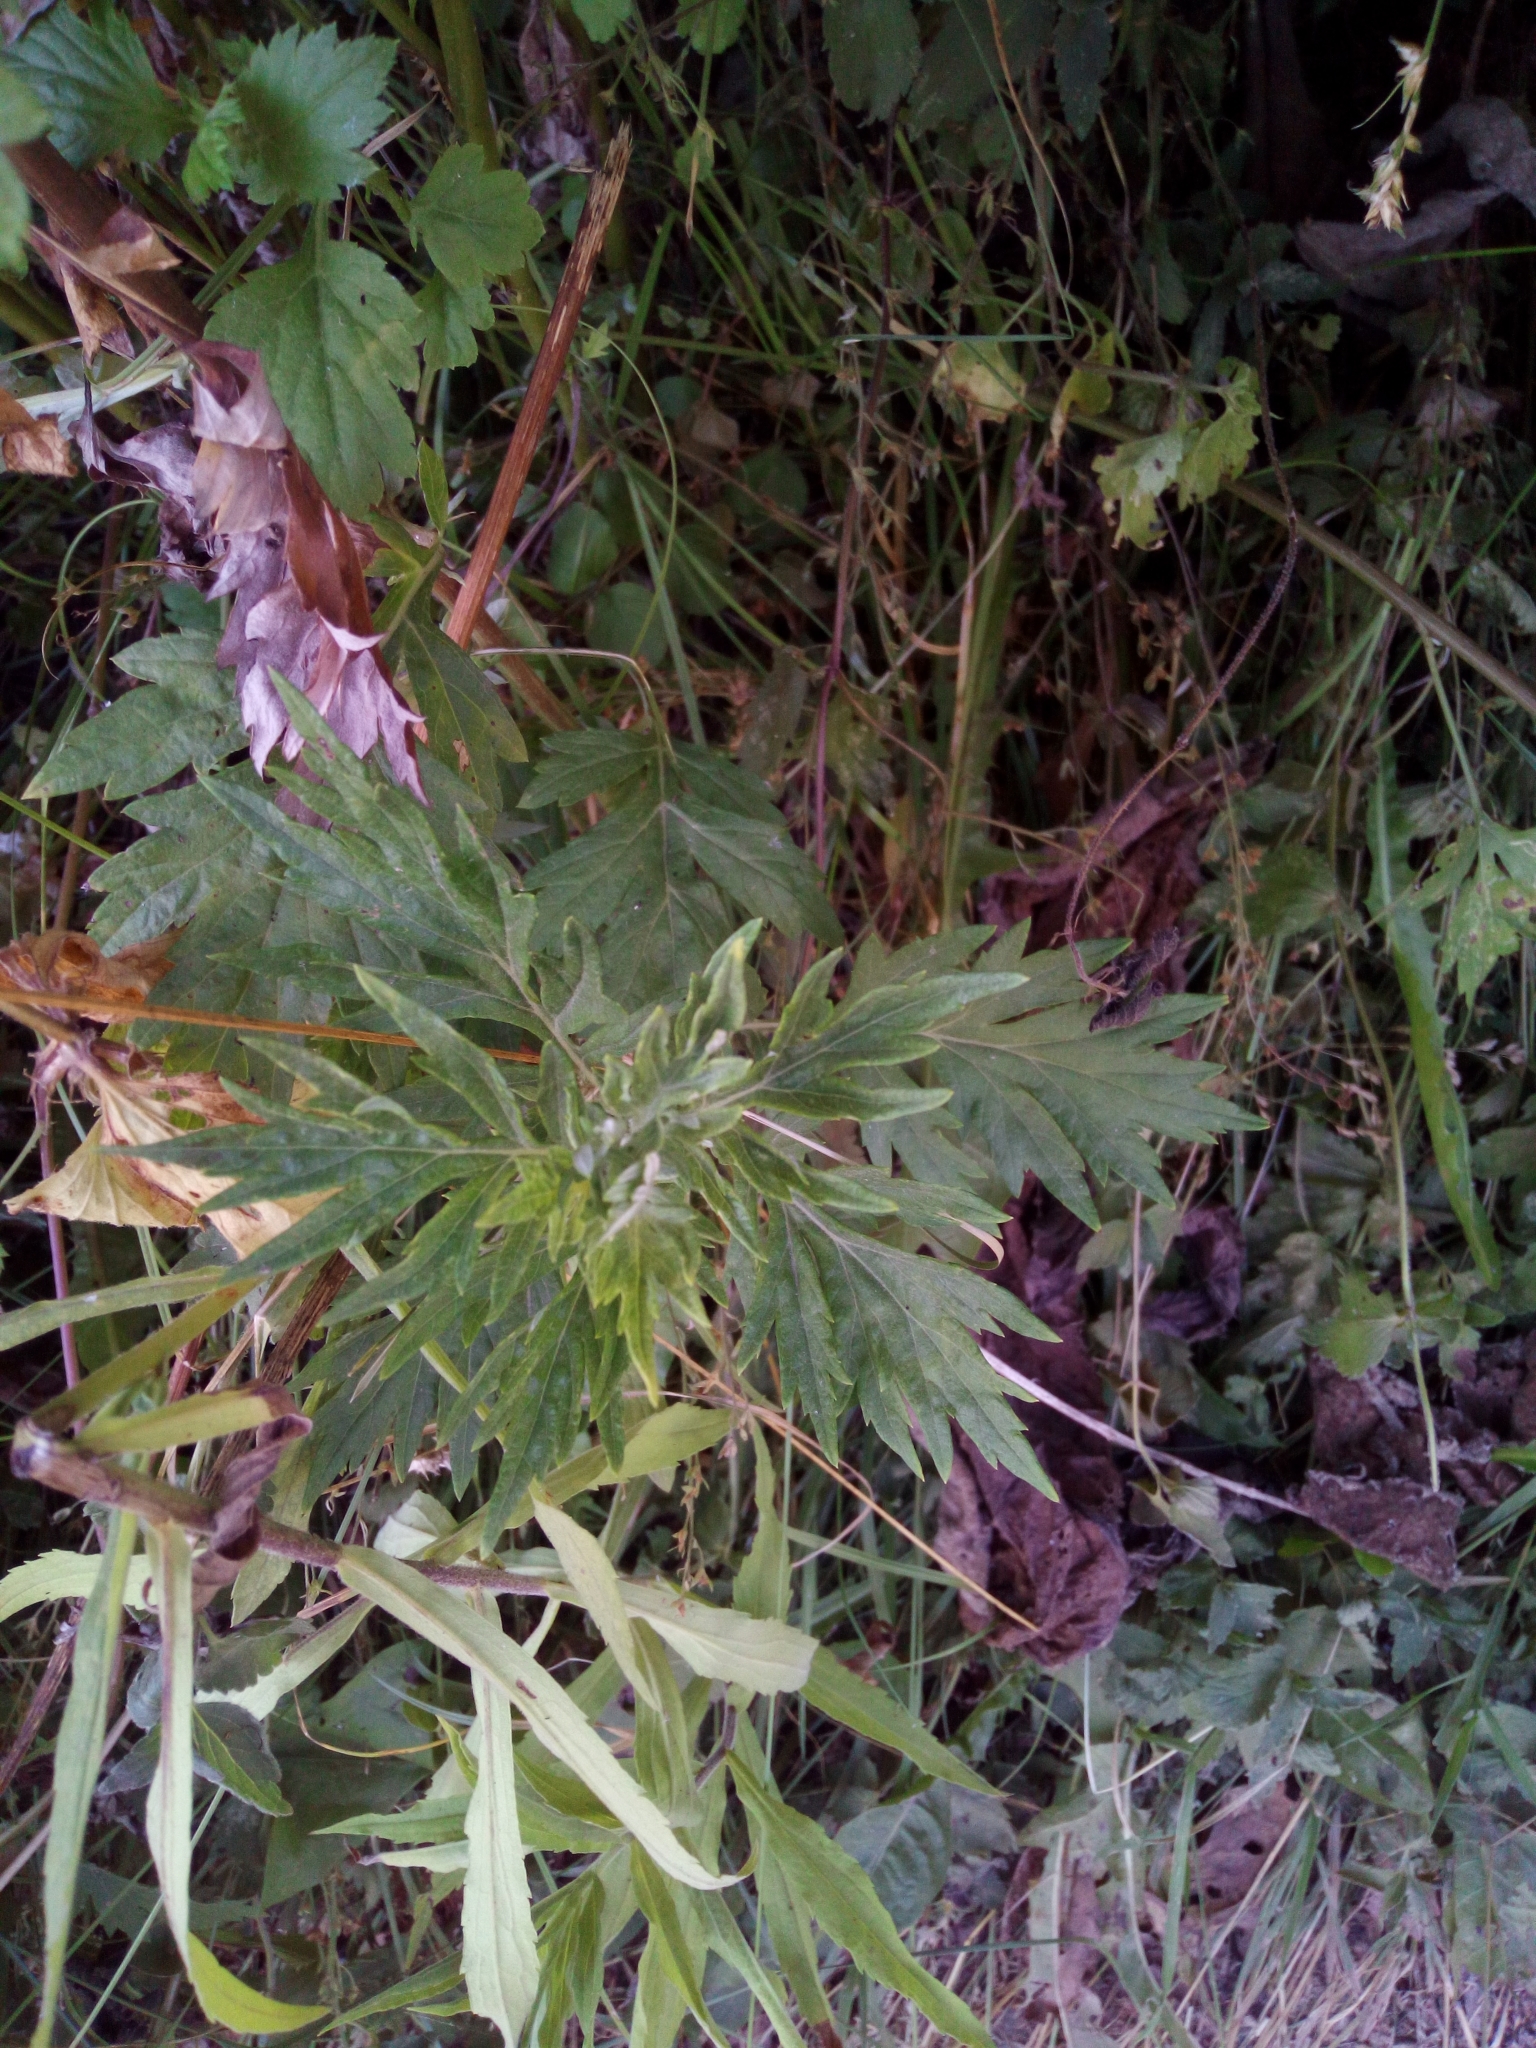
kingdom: Plantae
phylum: Tracheophyta
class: Magnoliopsida
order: Asterales
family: Asteraceae
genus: Artemisia
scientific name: Artemisia vulgaris
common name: Mugwort
